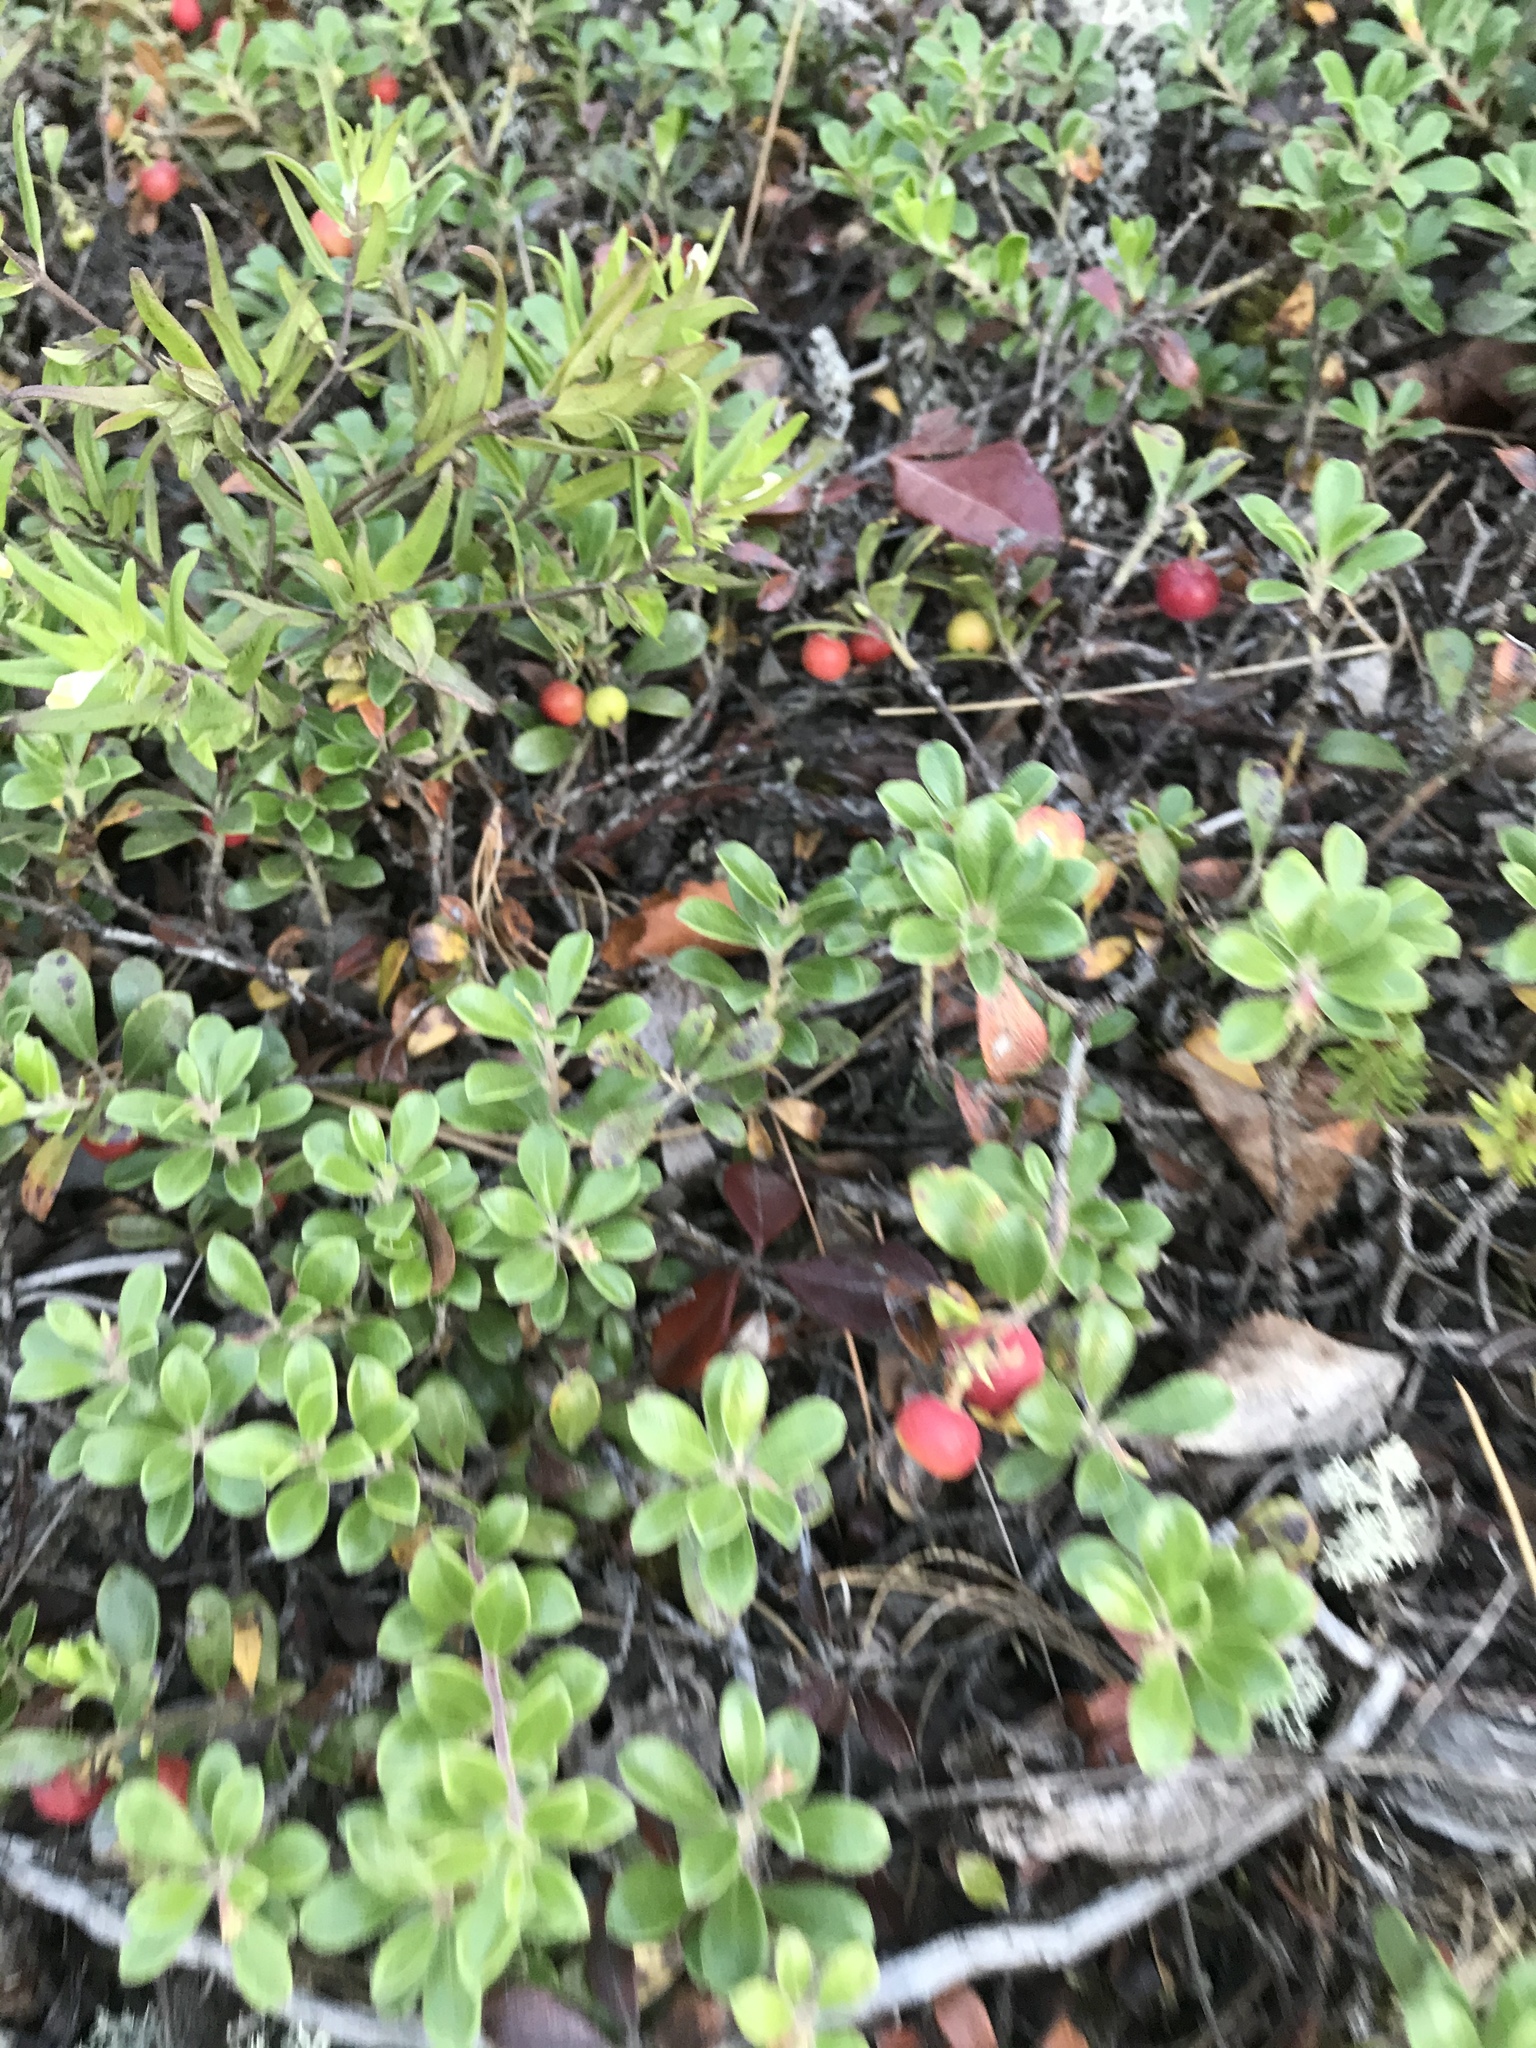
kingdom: Plantae
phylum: Tracheophyta
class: Magnoliopsida
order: Ericales
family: Ericaceae
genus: Arctostaphylos
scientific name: Arctostaphylos uva-ursi
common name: Bearberry
